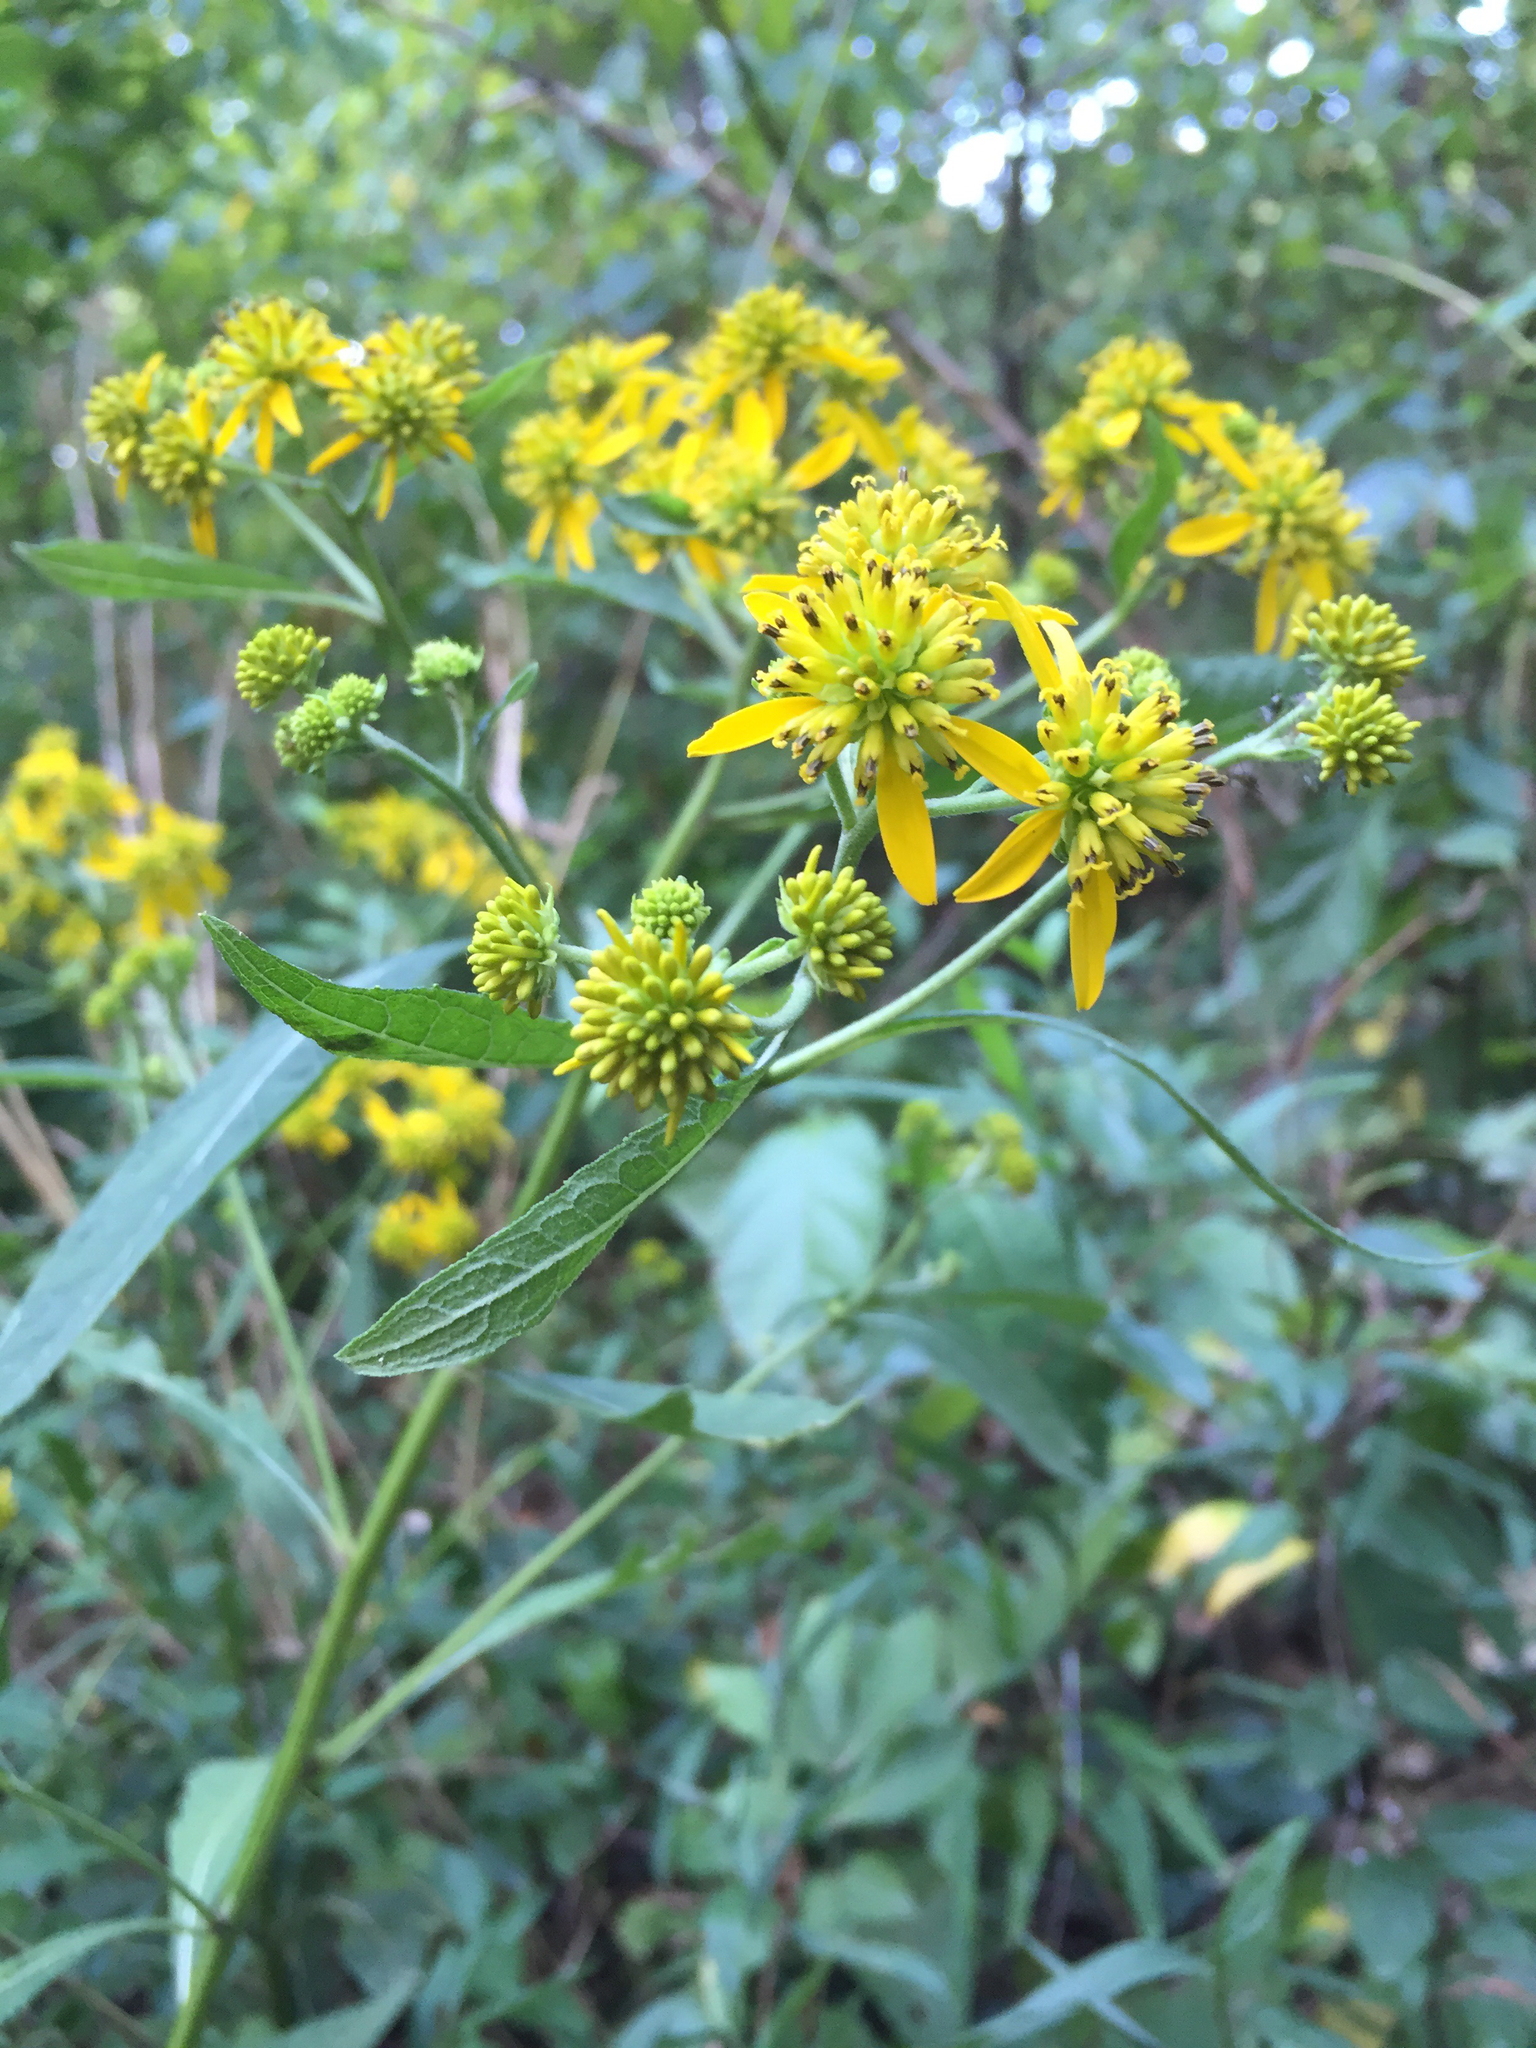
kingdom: Plantae
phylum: Tracheophyta
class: Magnoliopsida
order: Asterales
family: Asteraceae
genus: Verbesina
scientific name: Verbesina alternifolia
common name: Wingstem
